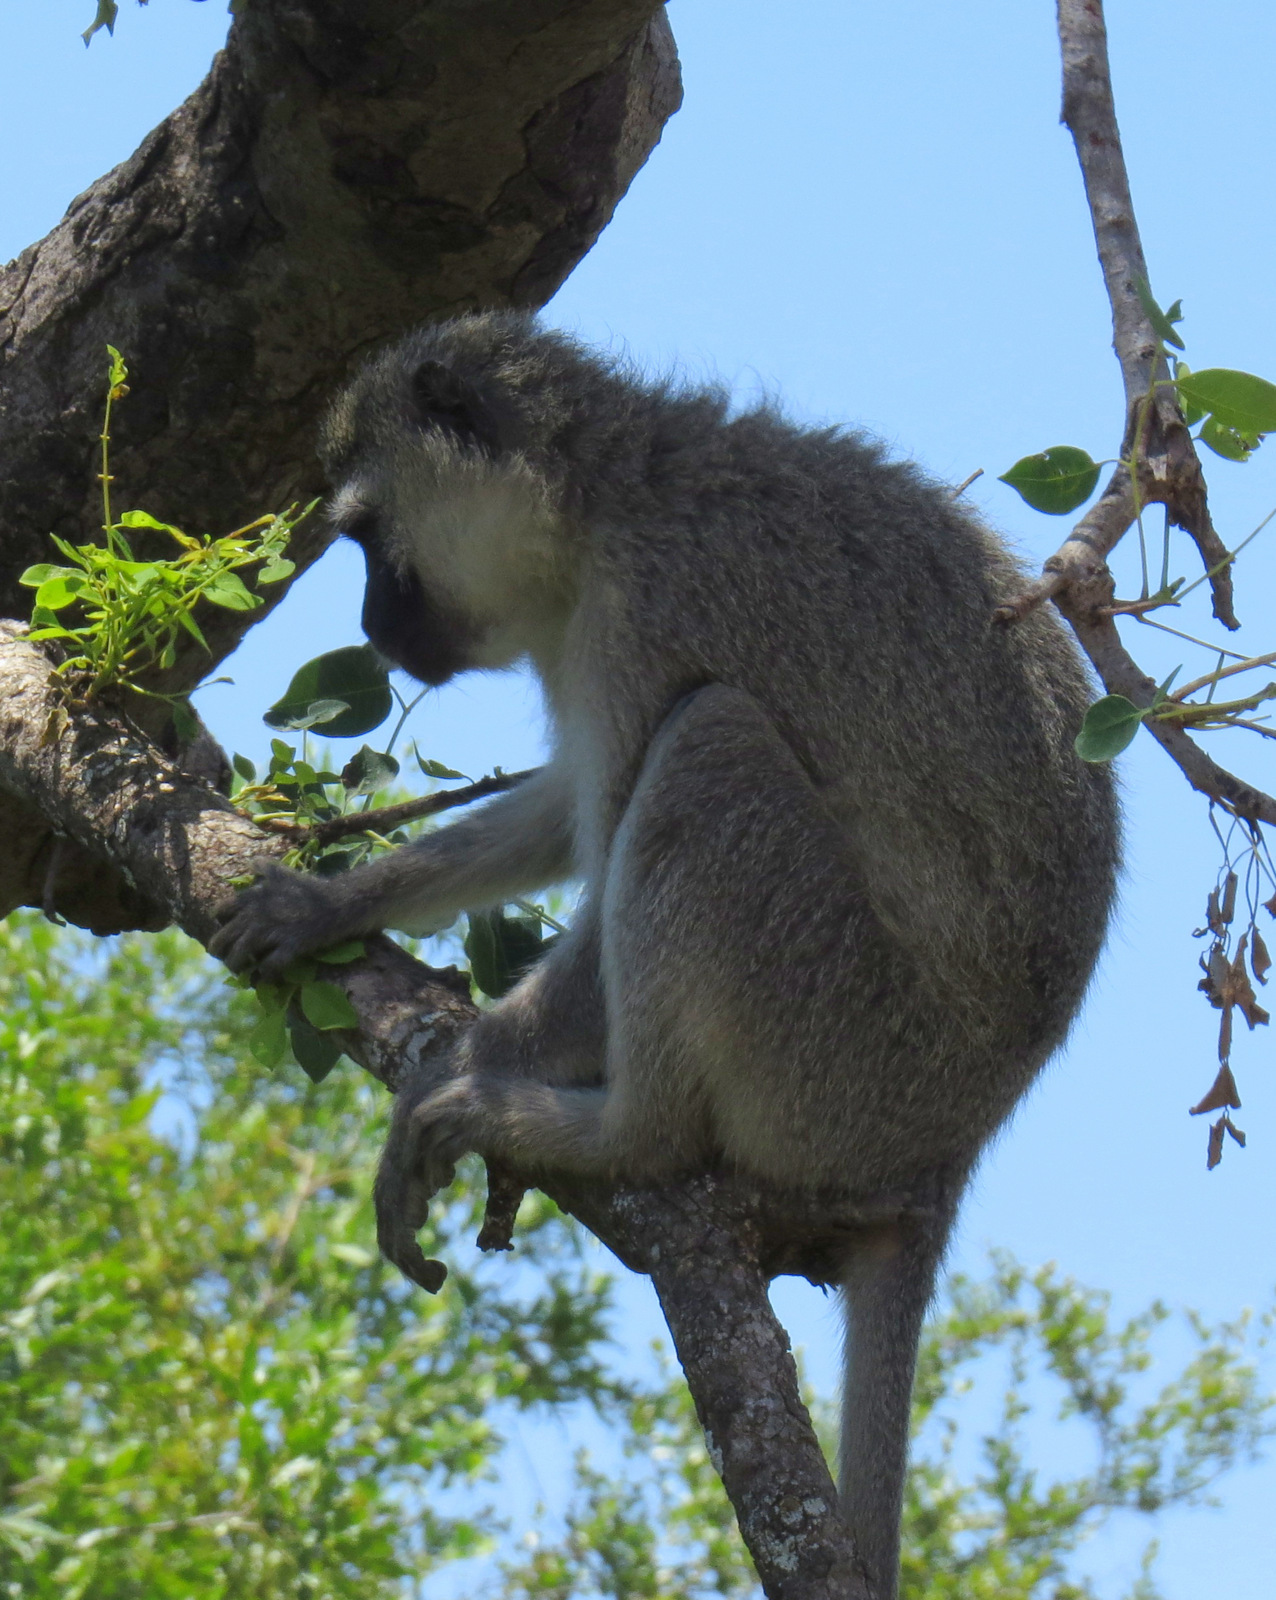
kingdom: Animalia
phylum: Chordata
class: Mammalia
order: Primates
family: Cercopithecidae
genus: Chlorocebus
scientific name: Chlorocebus pygerythrus
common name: Vervet monkey
